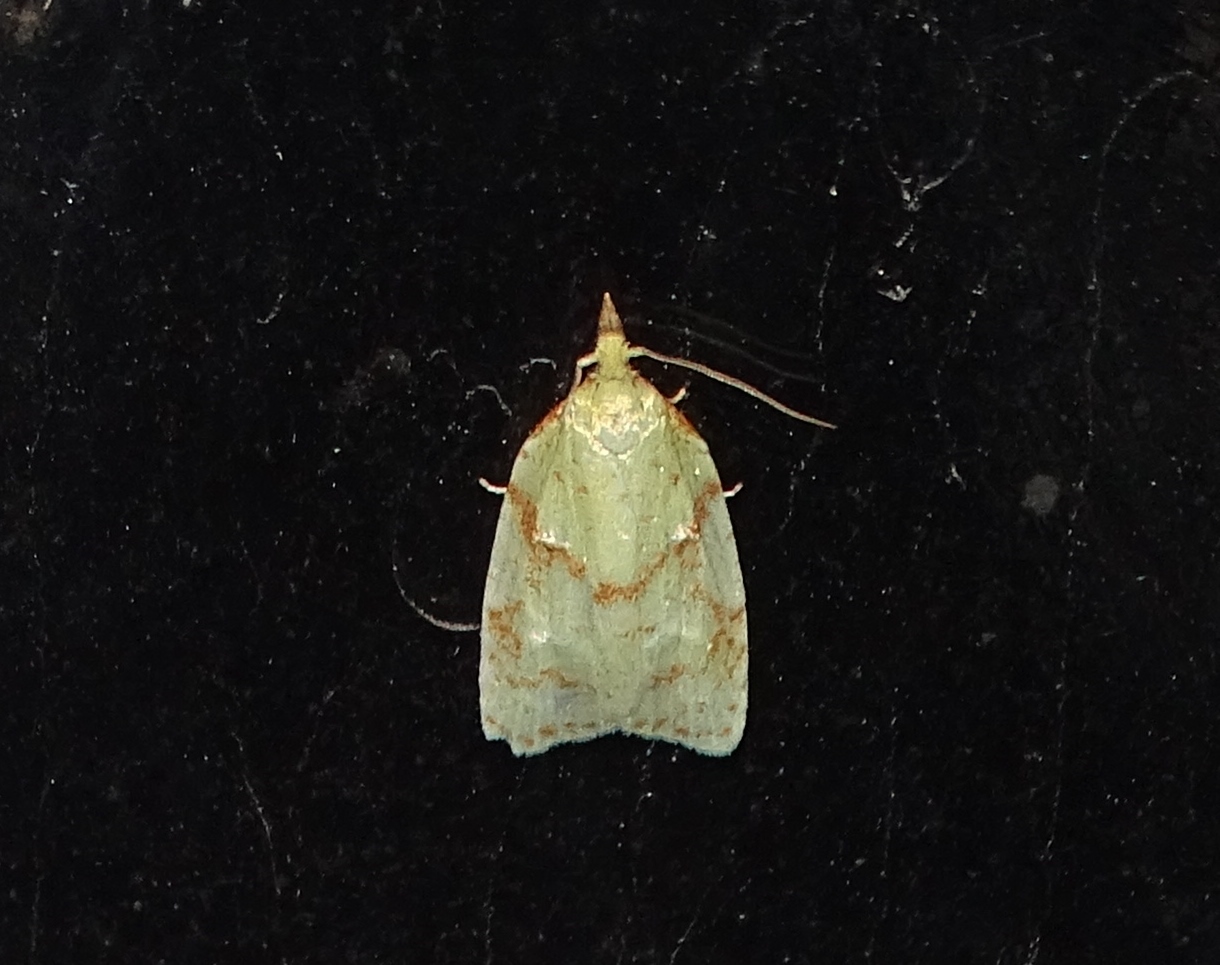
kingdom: Animalia
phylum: Arthropoda
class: Insecta
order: Lepidoptera
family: Tortricidae
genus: Cenopis
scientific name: Cenopis pettitana
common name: Maple-basswood leafroller moth
